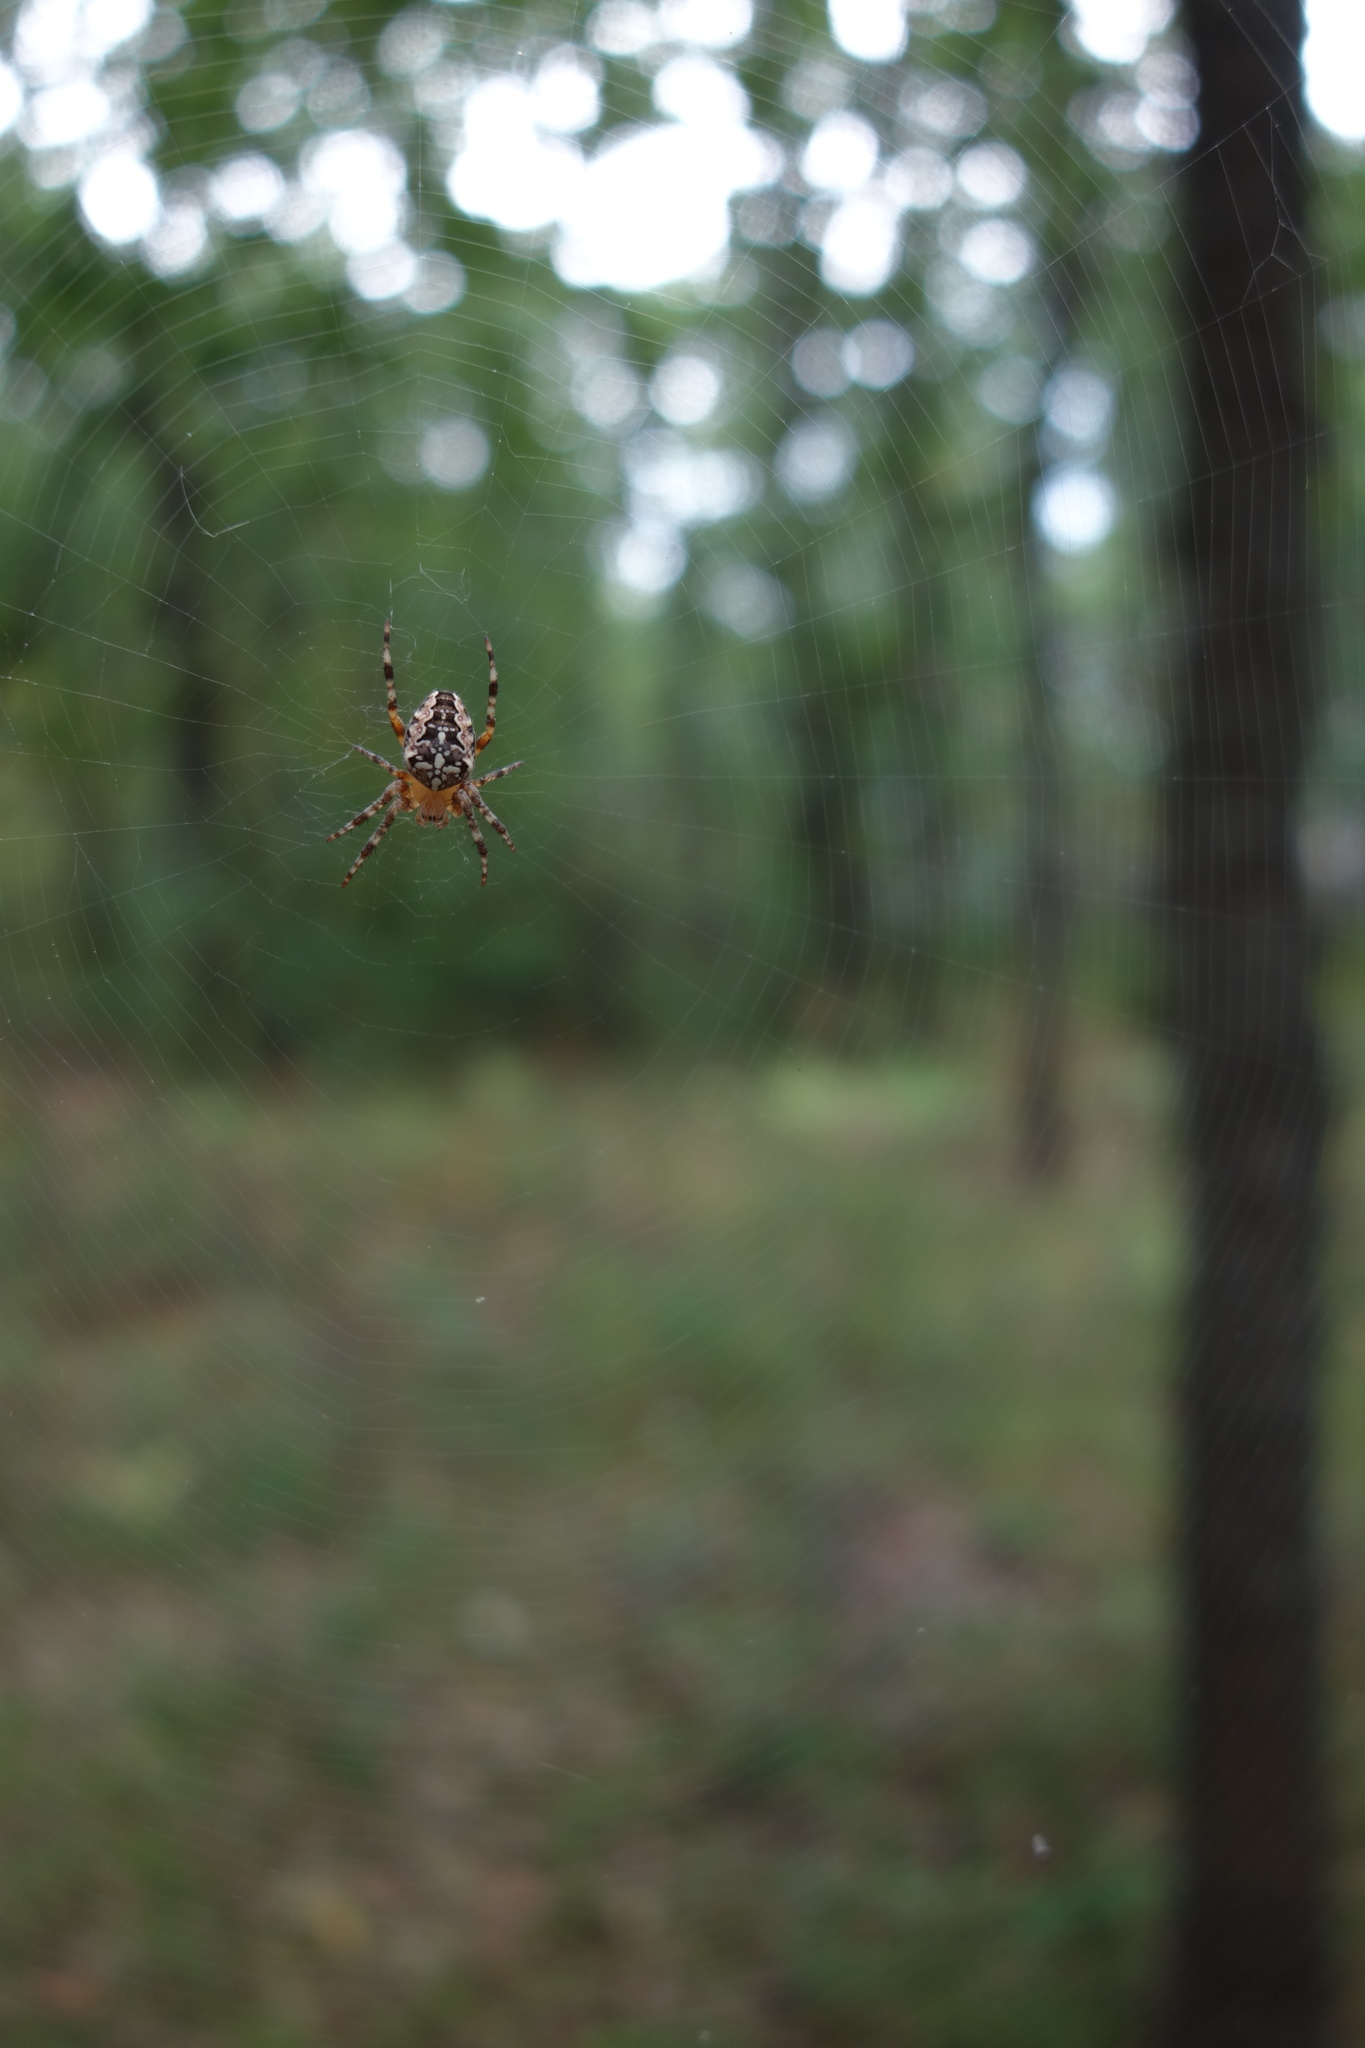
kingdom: Animalia
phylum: Arthropoda
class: Arachnida
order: Araneae
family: Araneidae
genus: Araneus
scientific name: Araneus diadematus
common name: Cross orbweaver
